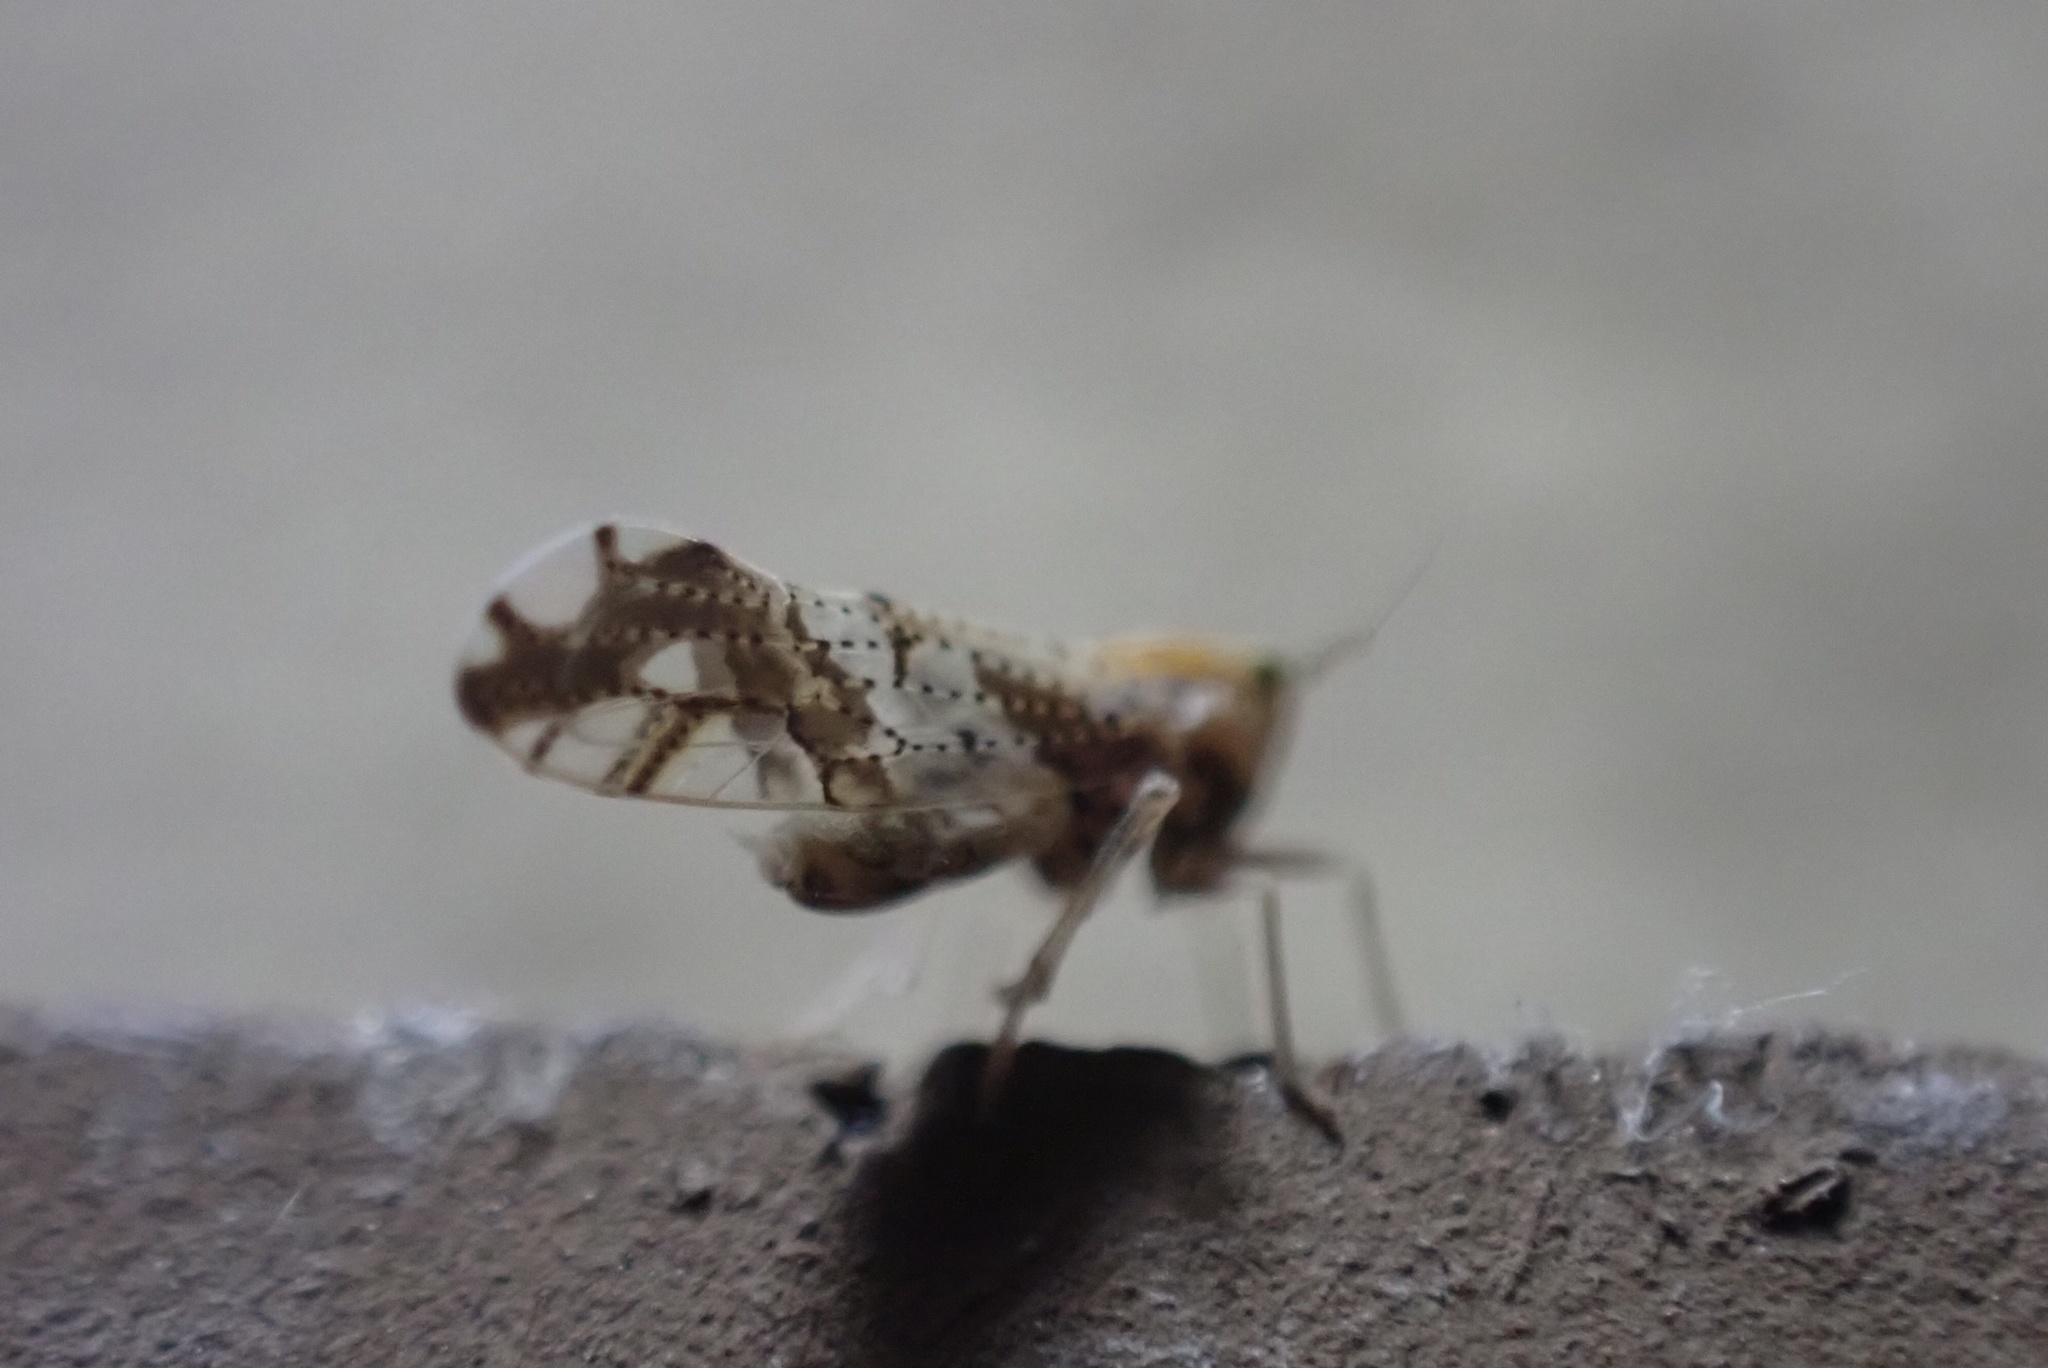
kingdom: Animalia
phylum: Arthropoda
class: Insecta
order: Hemiptera
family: Delphacidae
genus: Liburniella
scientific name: Liburniella ornata
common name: Ornate planthopper
